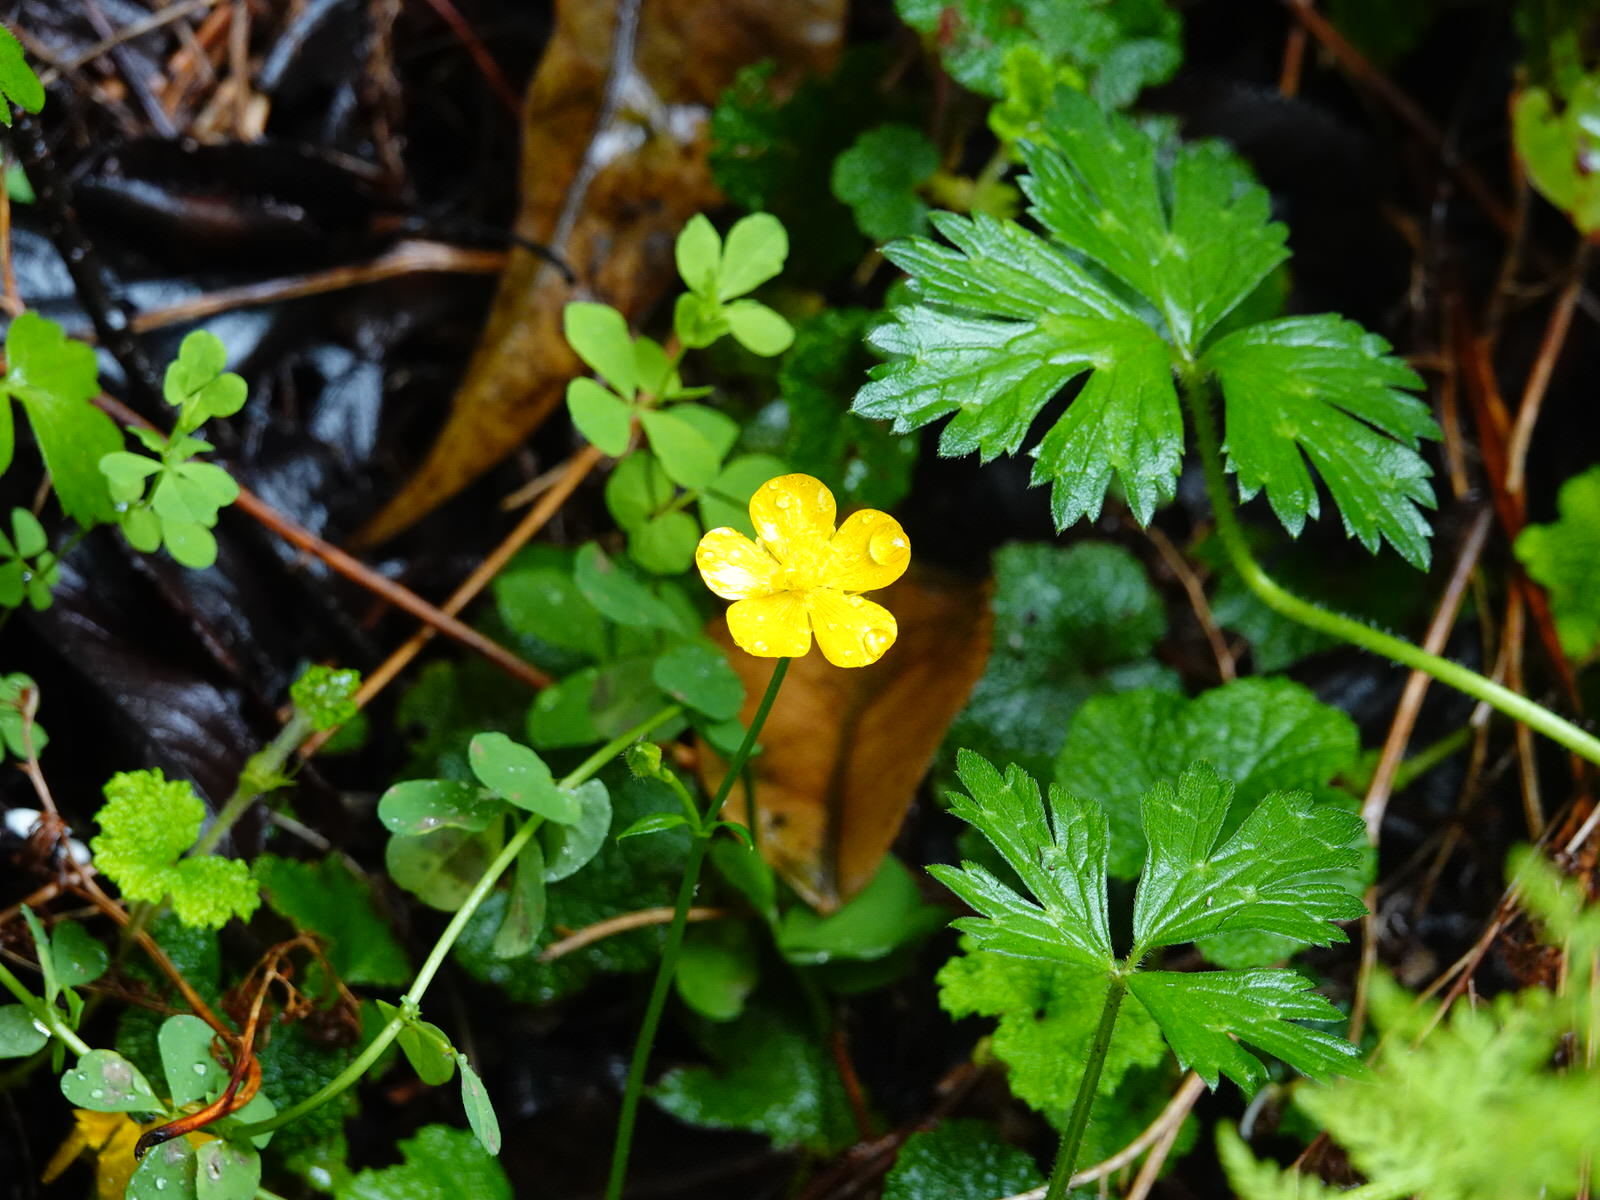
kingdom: Plantae
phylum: Tracheophyta
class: Magnoliopsida
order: Ranunculales
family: Ranunculaceae
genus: Ranunculus
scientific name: Ranunculus repens
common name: Creeping buttercup
